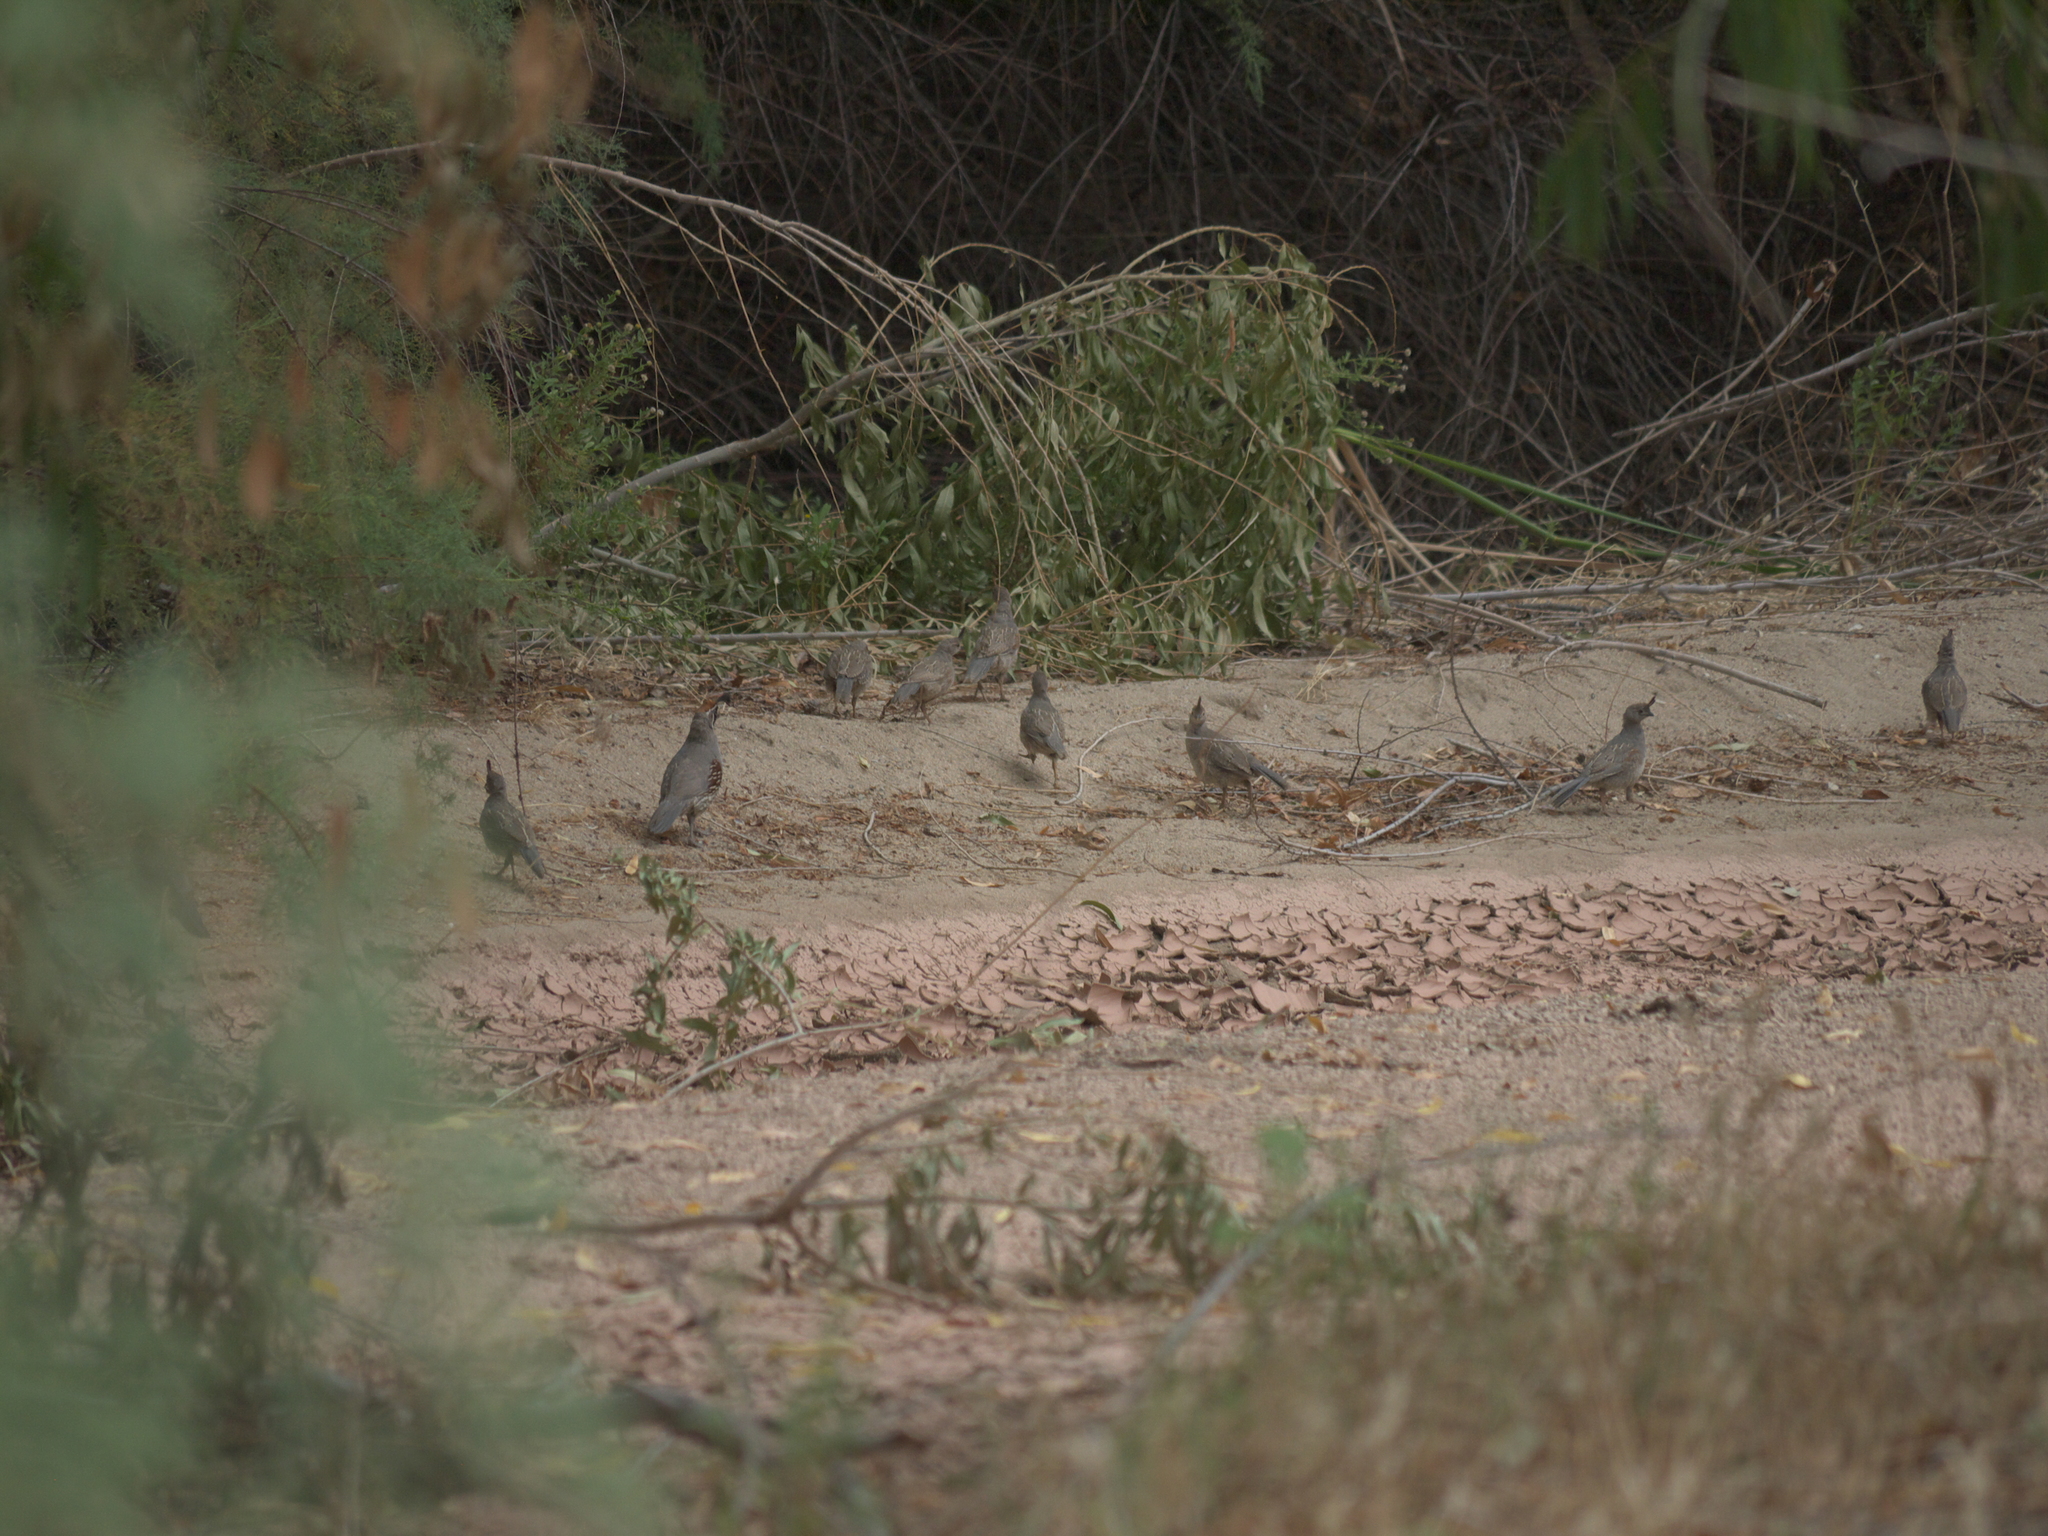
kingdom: Animalia
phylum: Chordata
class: Aves
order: Galliformes
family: Odontophoridae
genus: Callipepla
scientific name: Callipepla gambelii
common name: Gambel's quail
